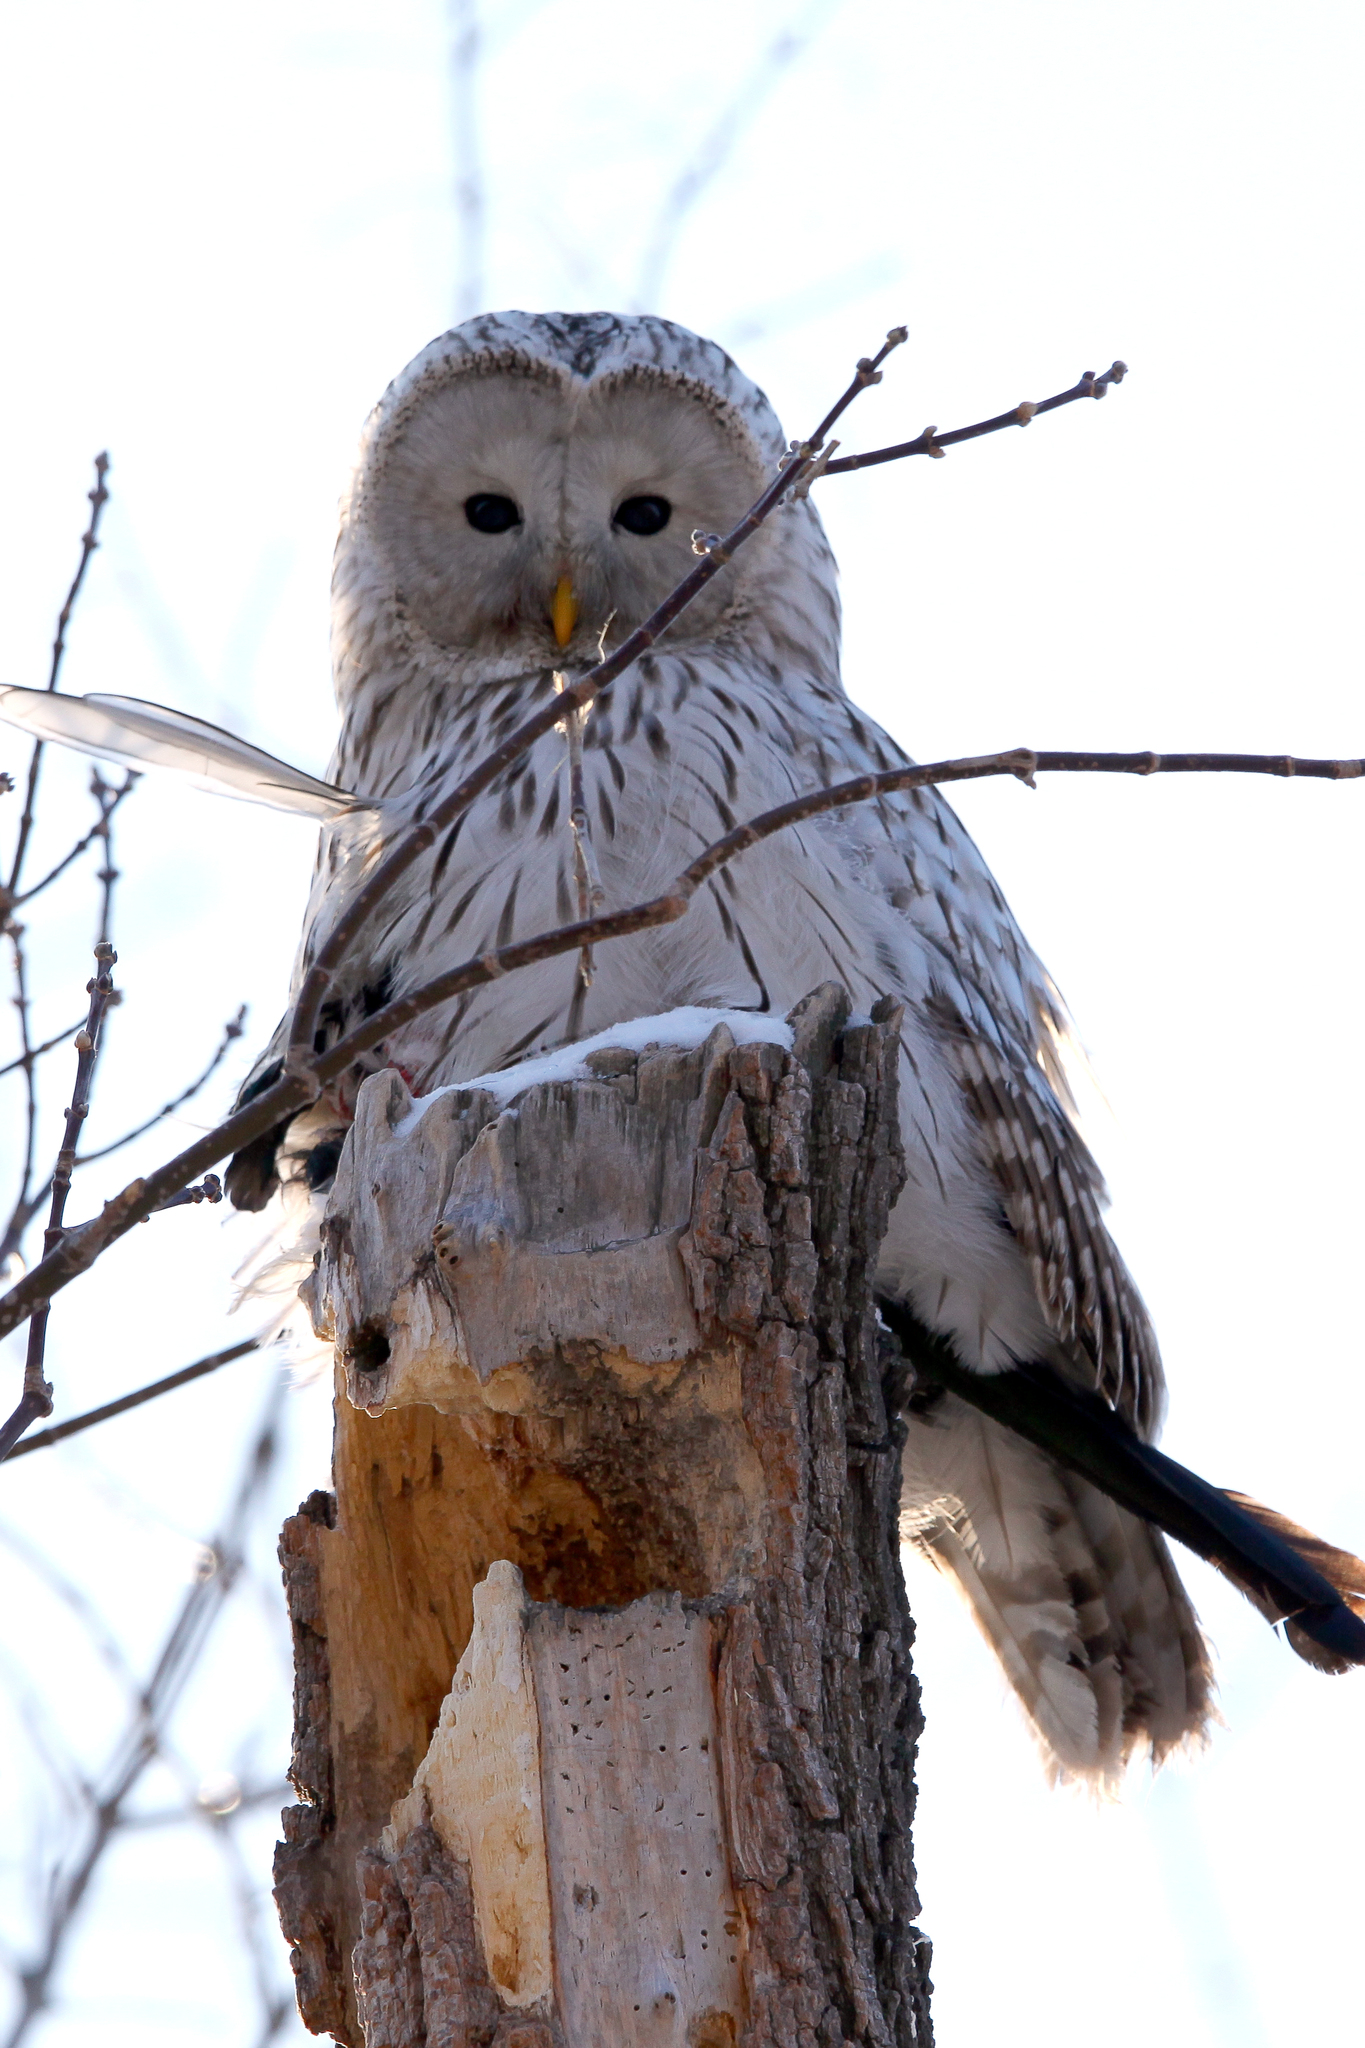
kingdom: Animalia
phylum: Chordata
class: Aves
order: Strigiformes
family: Strigidae
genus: Strix
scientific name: Strix uralensis
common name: Ural owl
